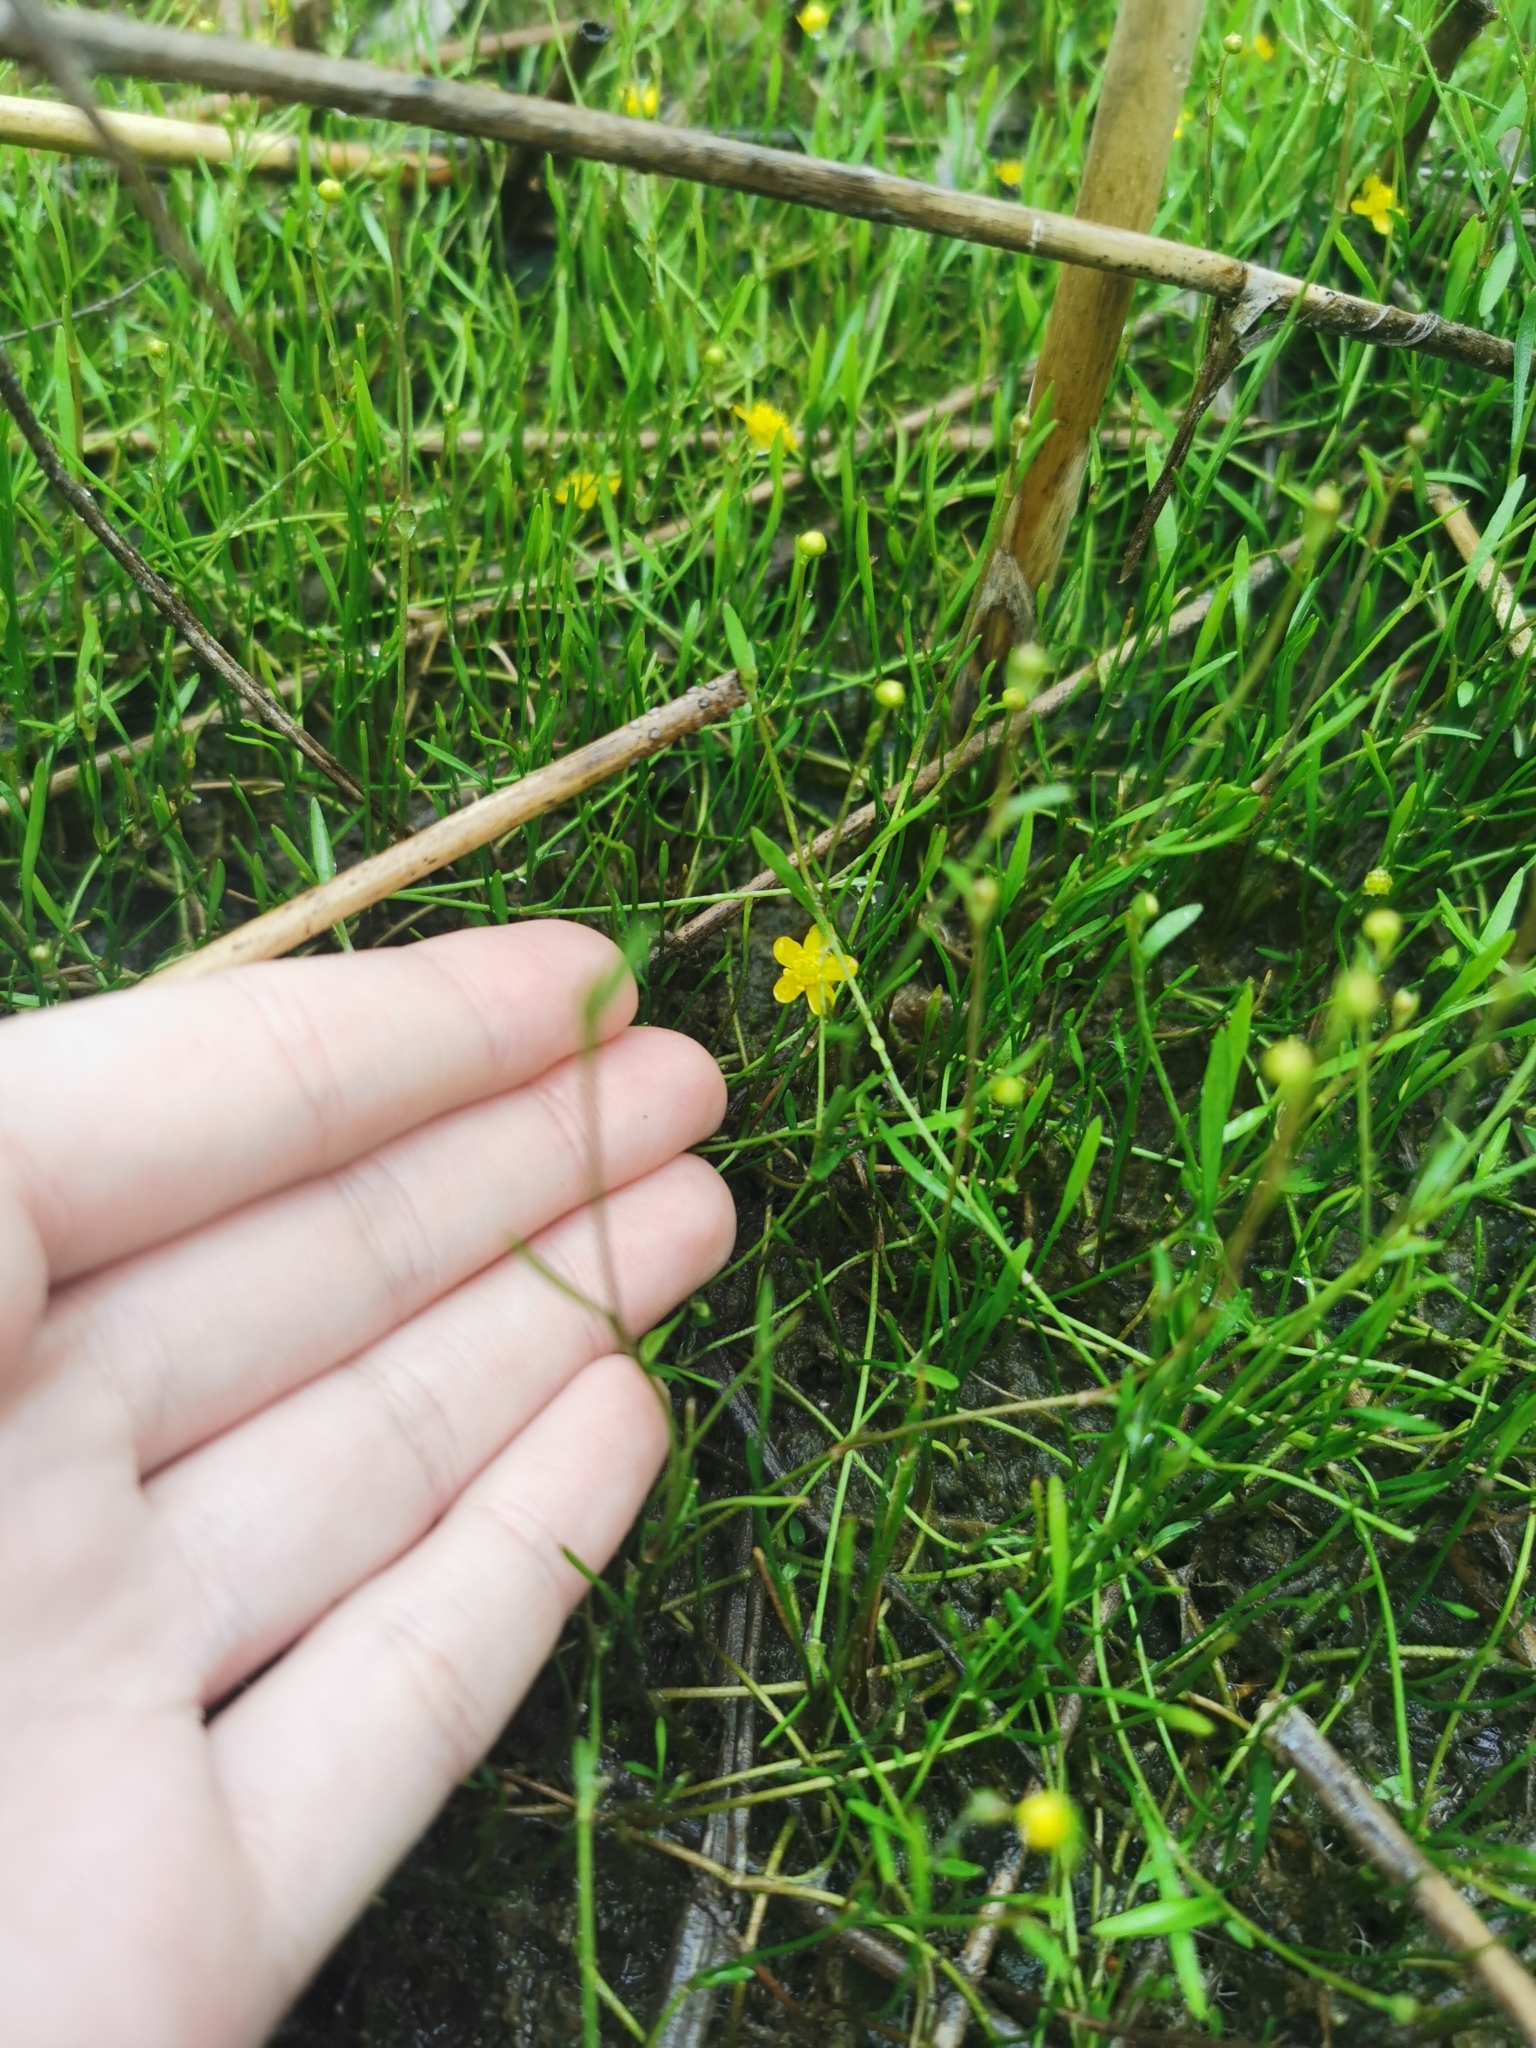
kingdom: Plantae
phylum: Tracheophyta
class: Magnoliopsida
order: Ranunculales
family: Ranunculaceae
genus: Ranunculus
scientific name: Ranunculus reptans
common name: Creeping spearwort
